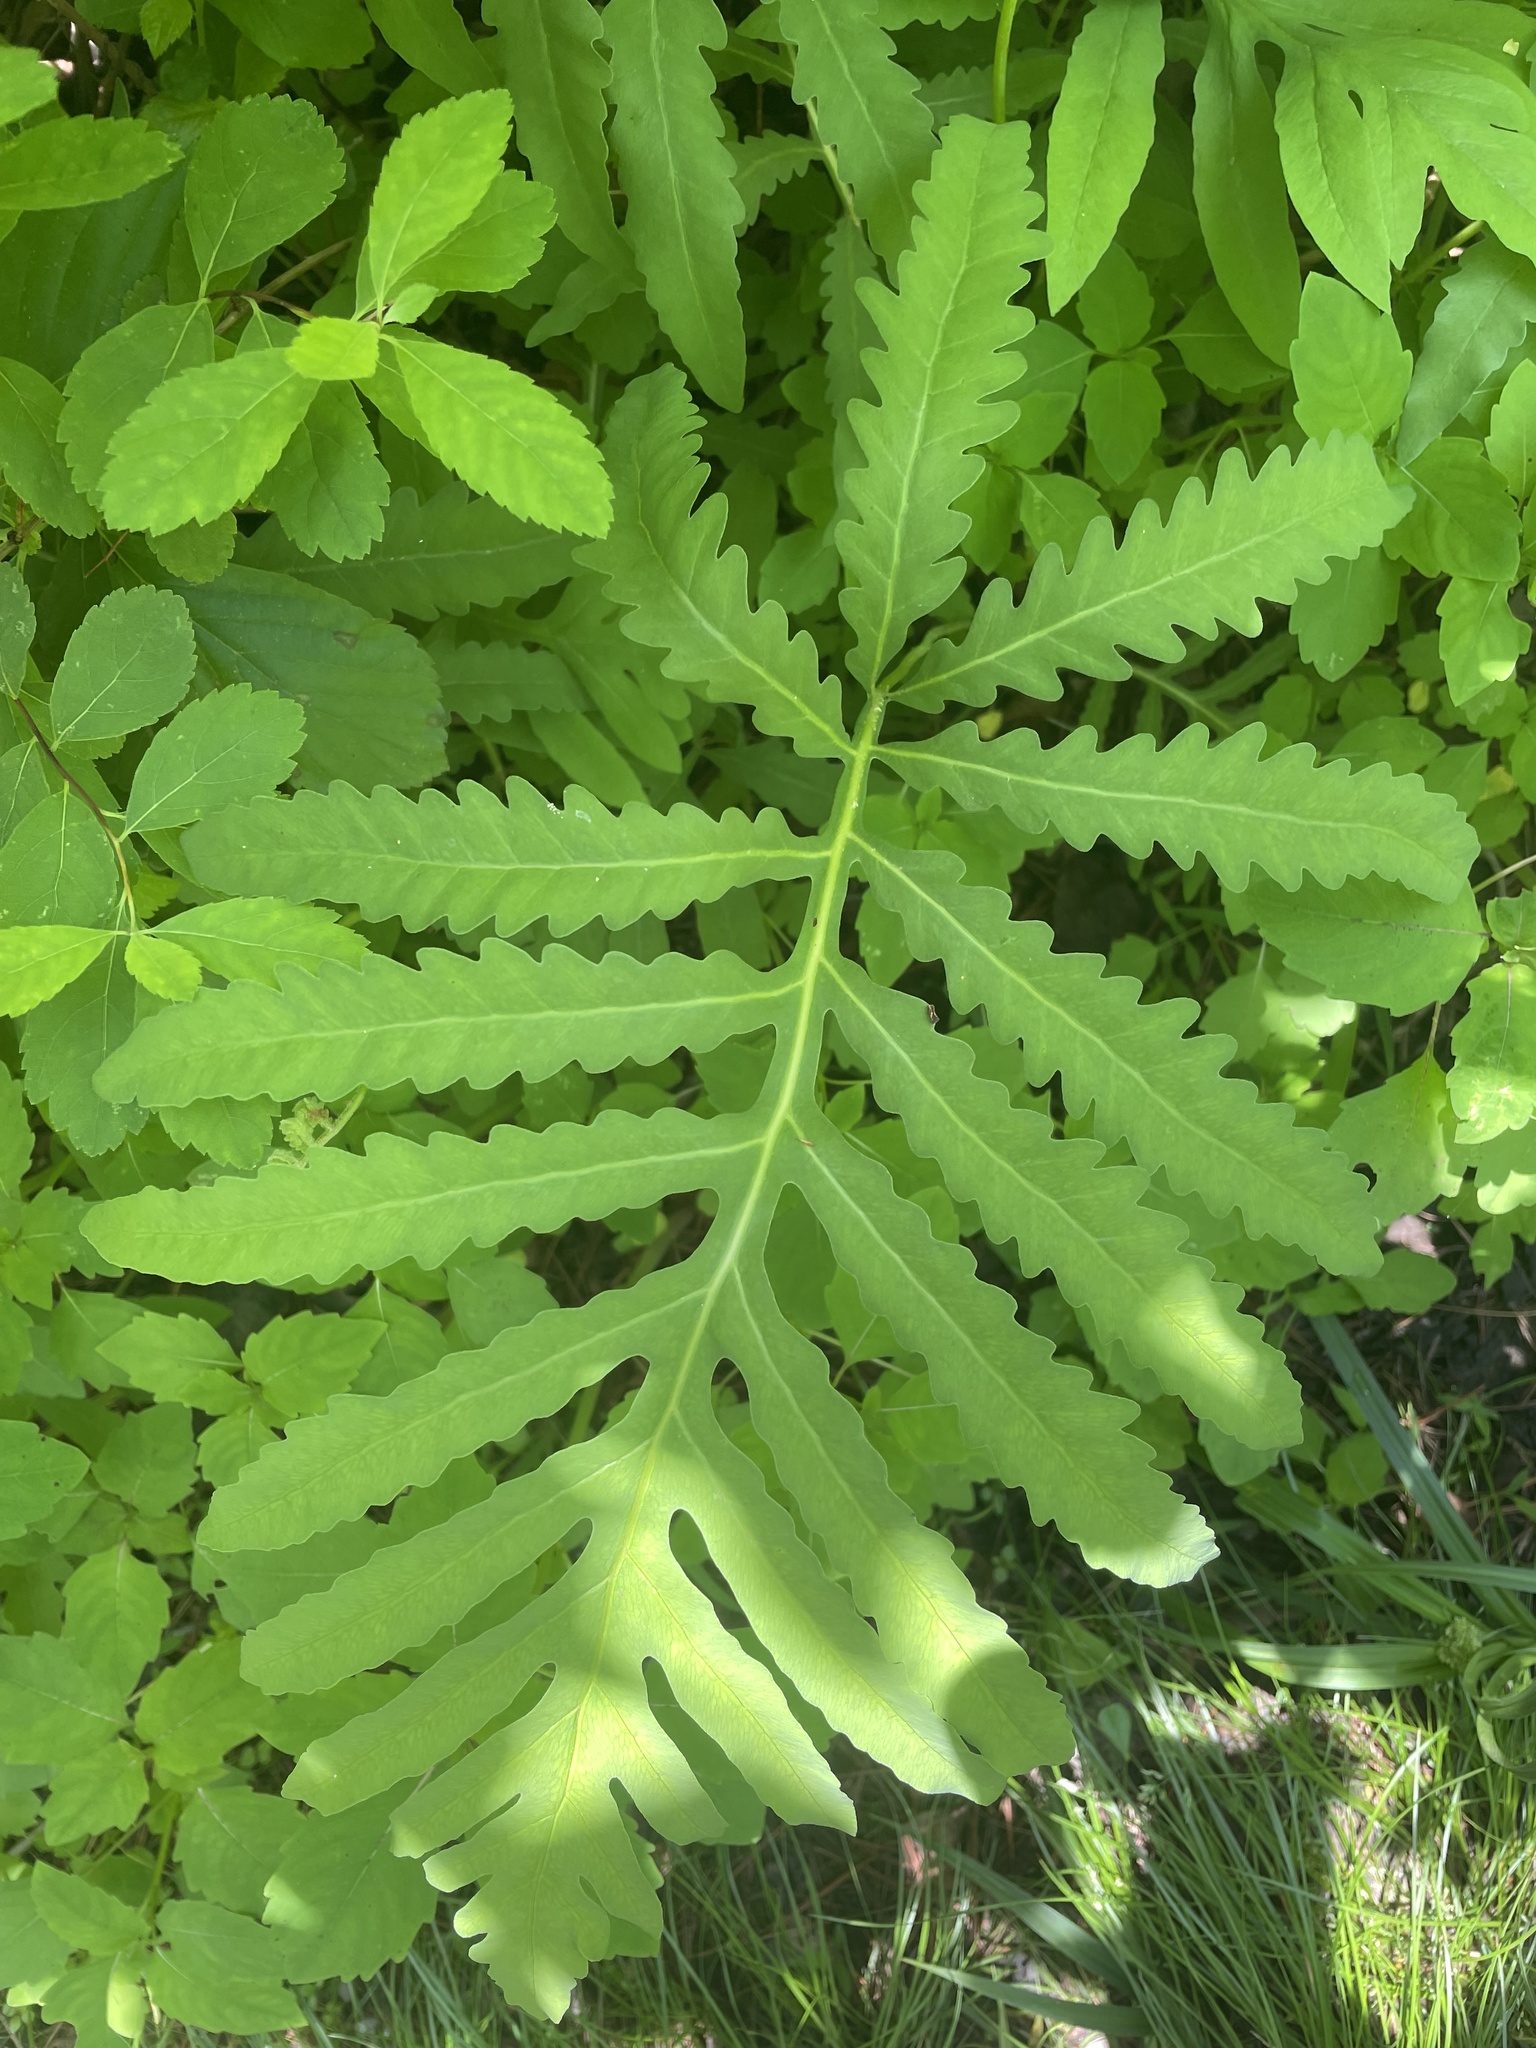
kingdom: Plantae
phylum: Tracheophyta
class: Polypodiopsida
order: Polypodiales
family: Onocleaceae
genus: Onoclea
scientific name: Onoclea sensibilis
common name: Sensitive fern
